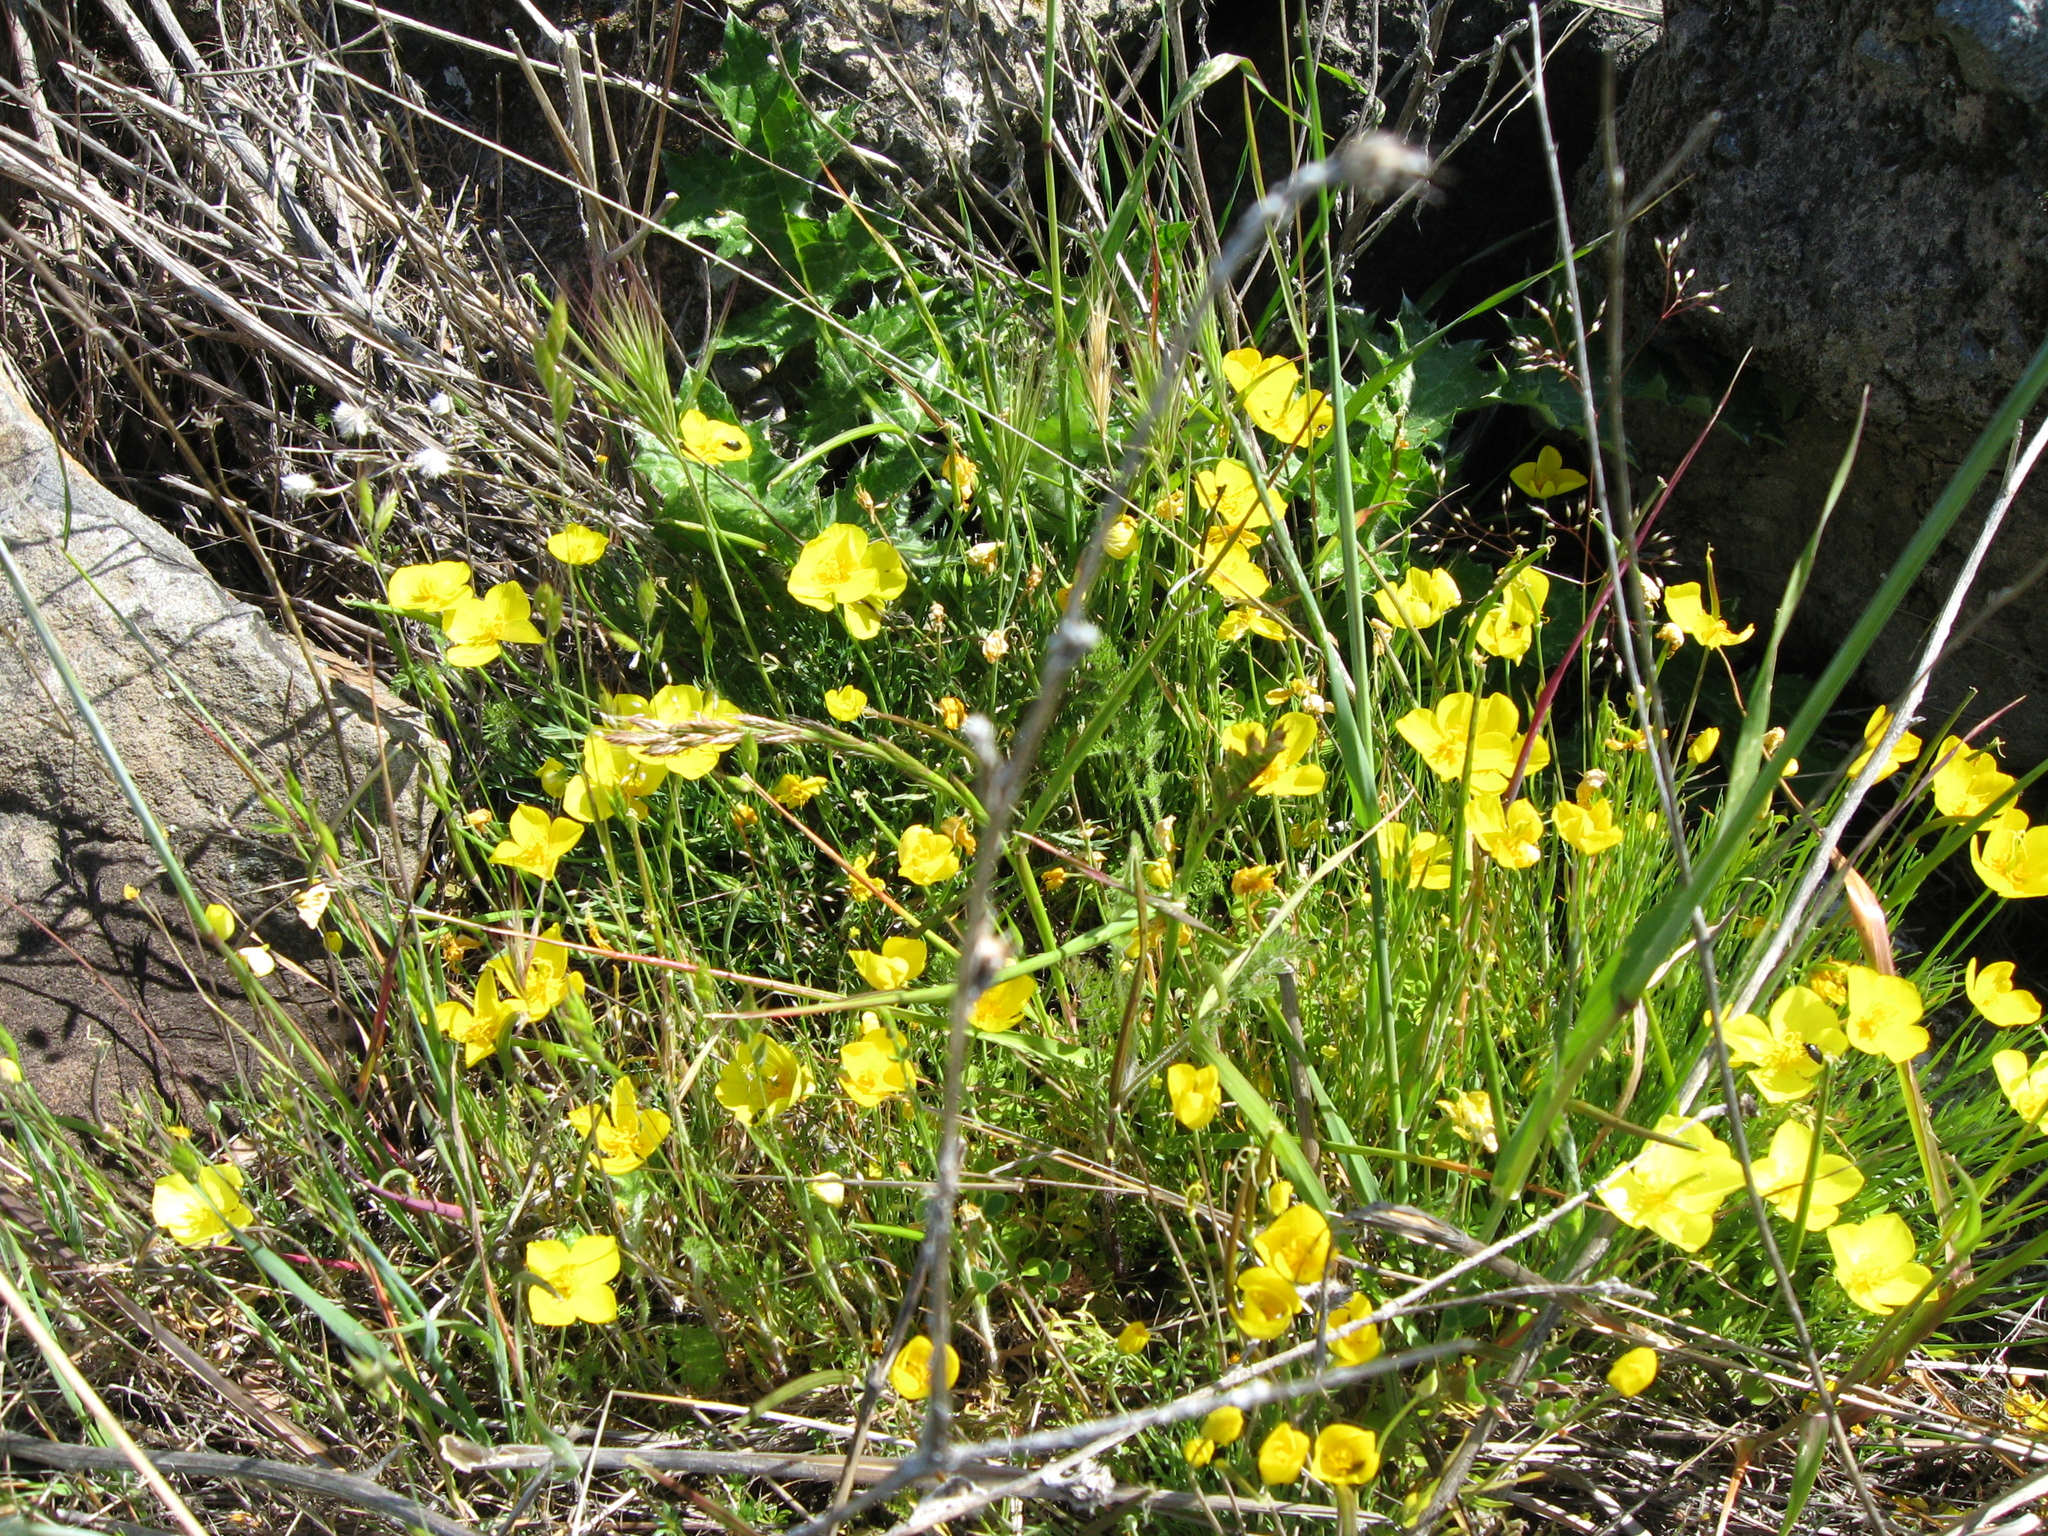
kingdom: Plantae
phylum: Tracheophyta
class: Magnoliopsida
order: Ranunculales
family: Papaveraceae
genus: Eschscholzia
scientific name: Eschscholzia lobbii
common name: Frying-pans
